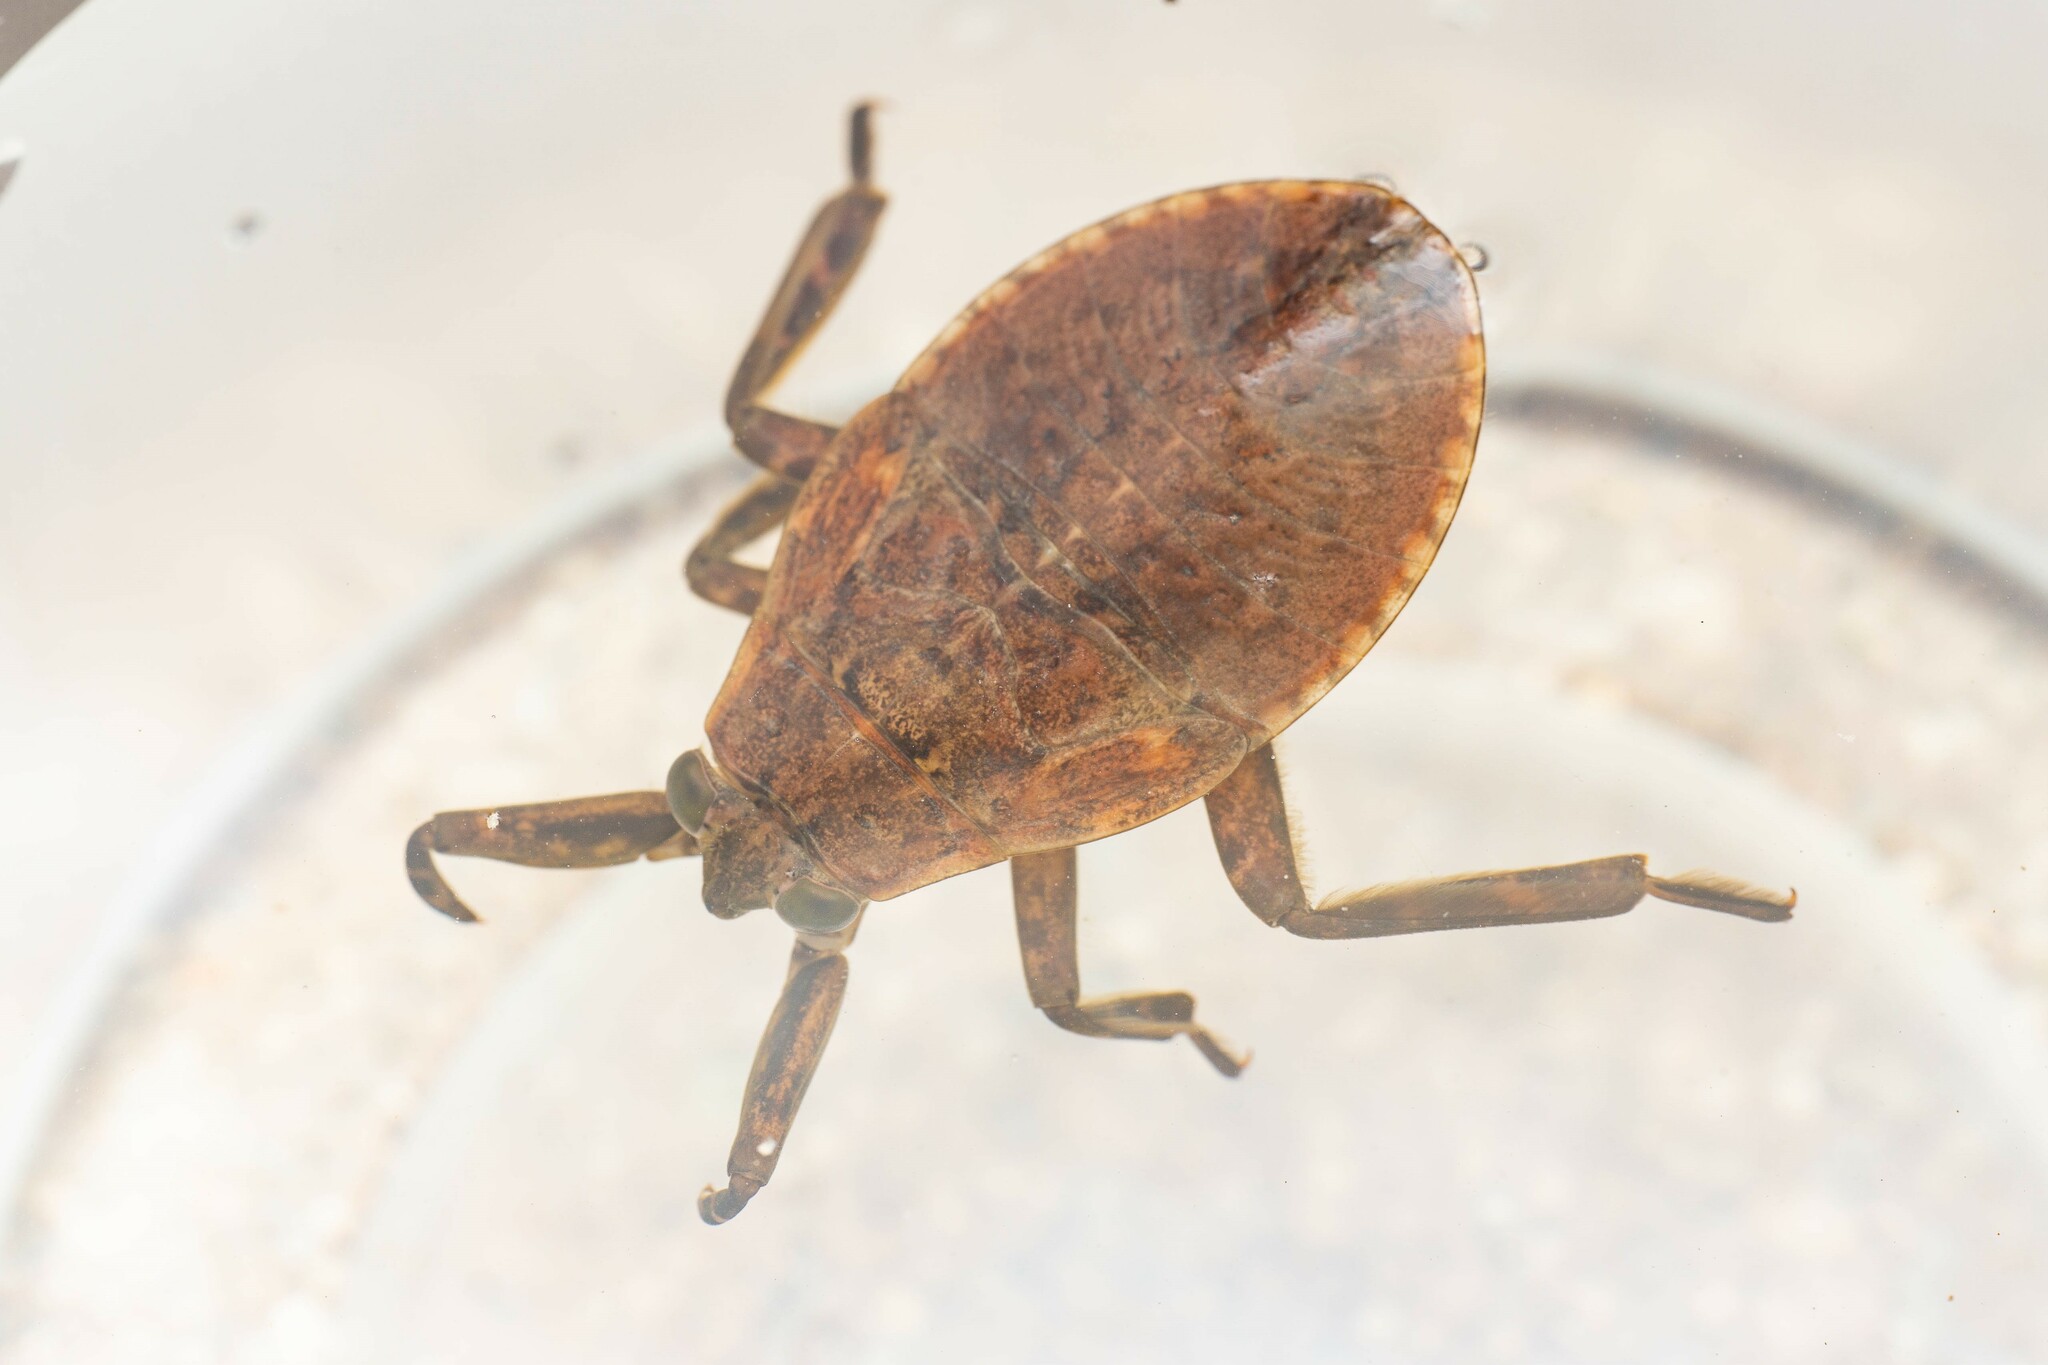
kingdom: Animalia
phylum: Arthropoda
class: Insecta
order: Hemiptera
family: Belostomatidae
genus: Abedus
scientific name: Abedus
